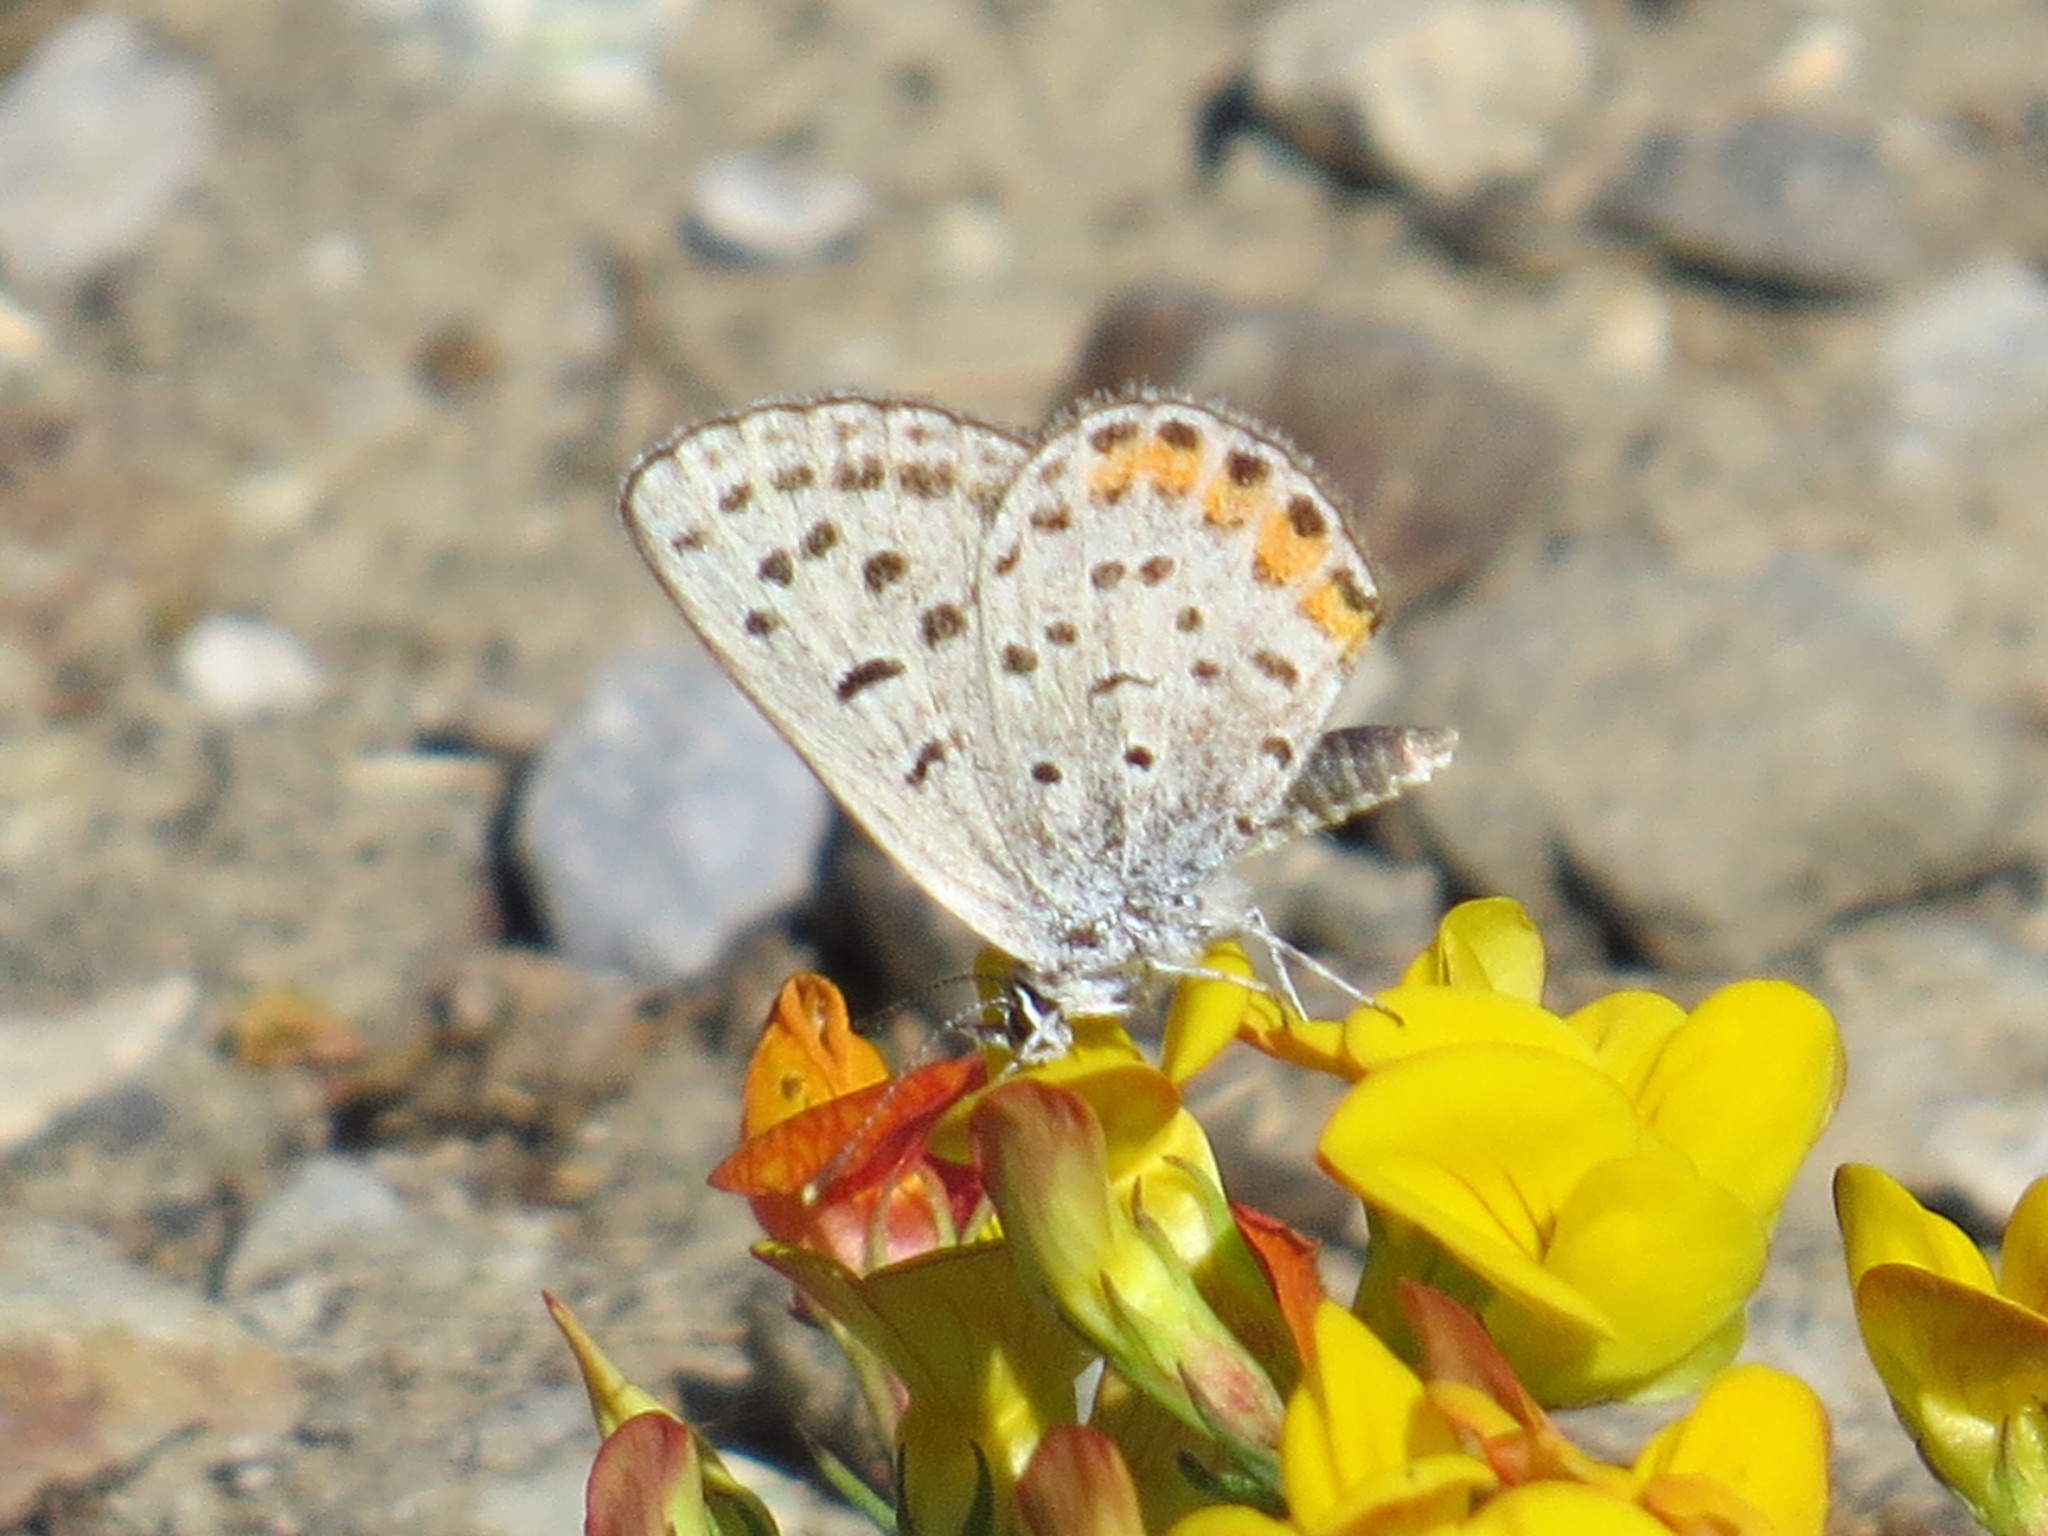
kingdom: Animalia
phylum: Arthropoda
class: Insecta
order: Lepidoptera
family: Lycaenidae
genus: Icaricia
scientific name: Icaricia acmon
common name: Acmon blue
